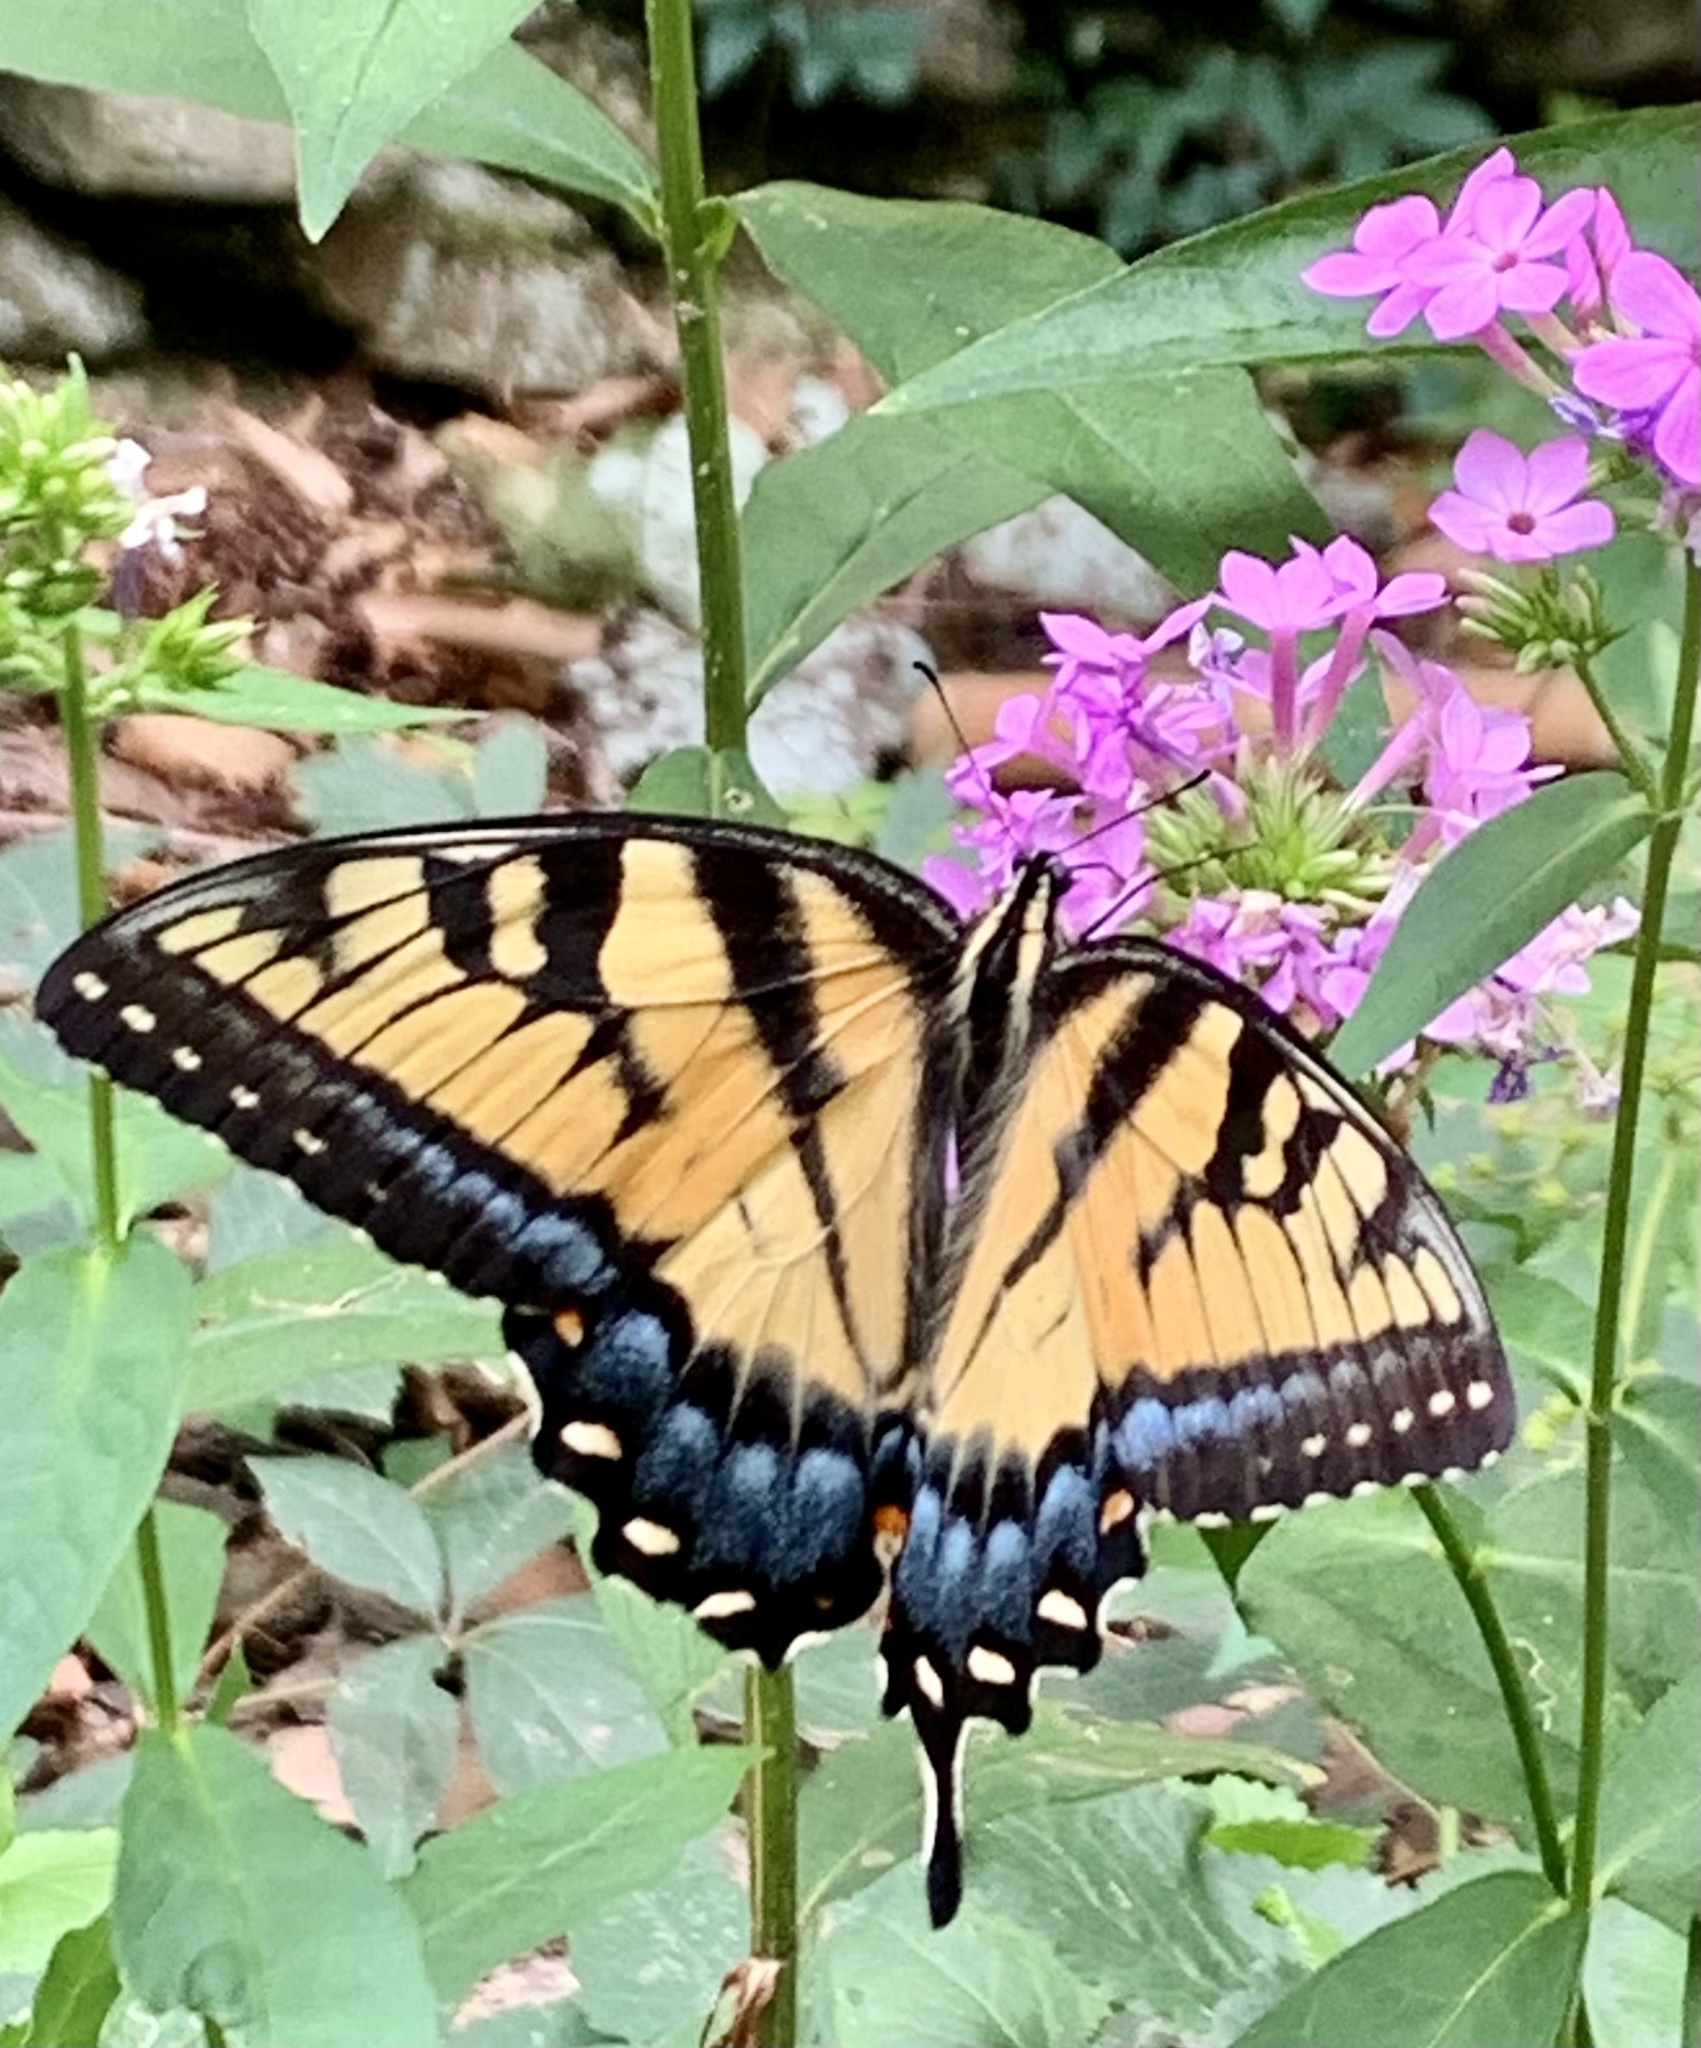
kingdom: Animalia
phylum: Arthropoda
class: Insecta
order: Lepidoptera
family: Papilionidae
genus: Papilio
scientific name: Papilio glaucus
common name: Tiger swallowtail
